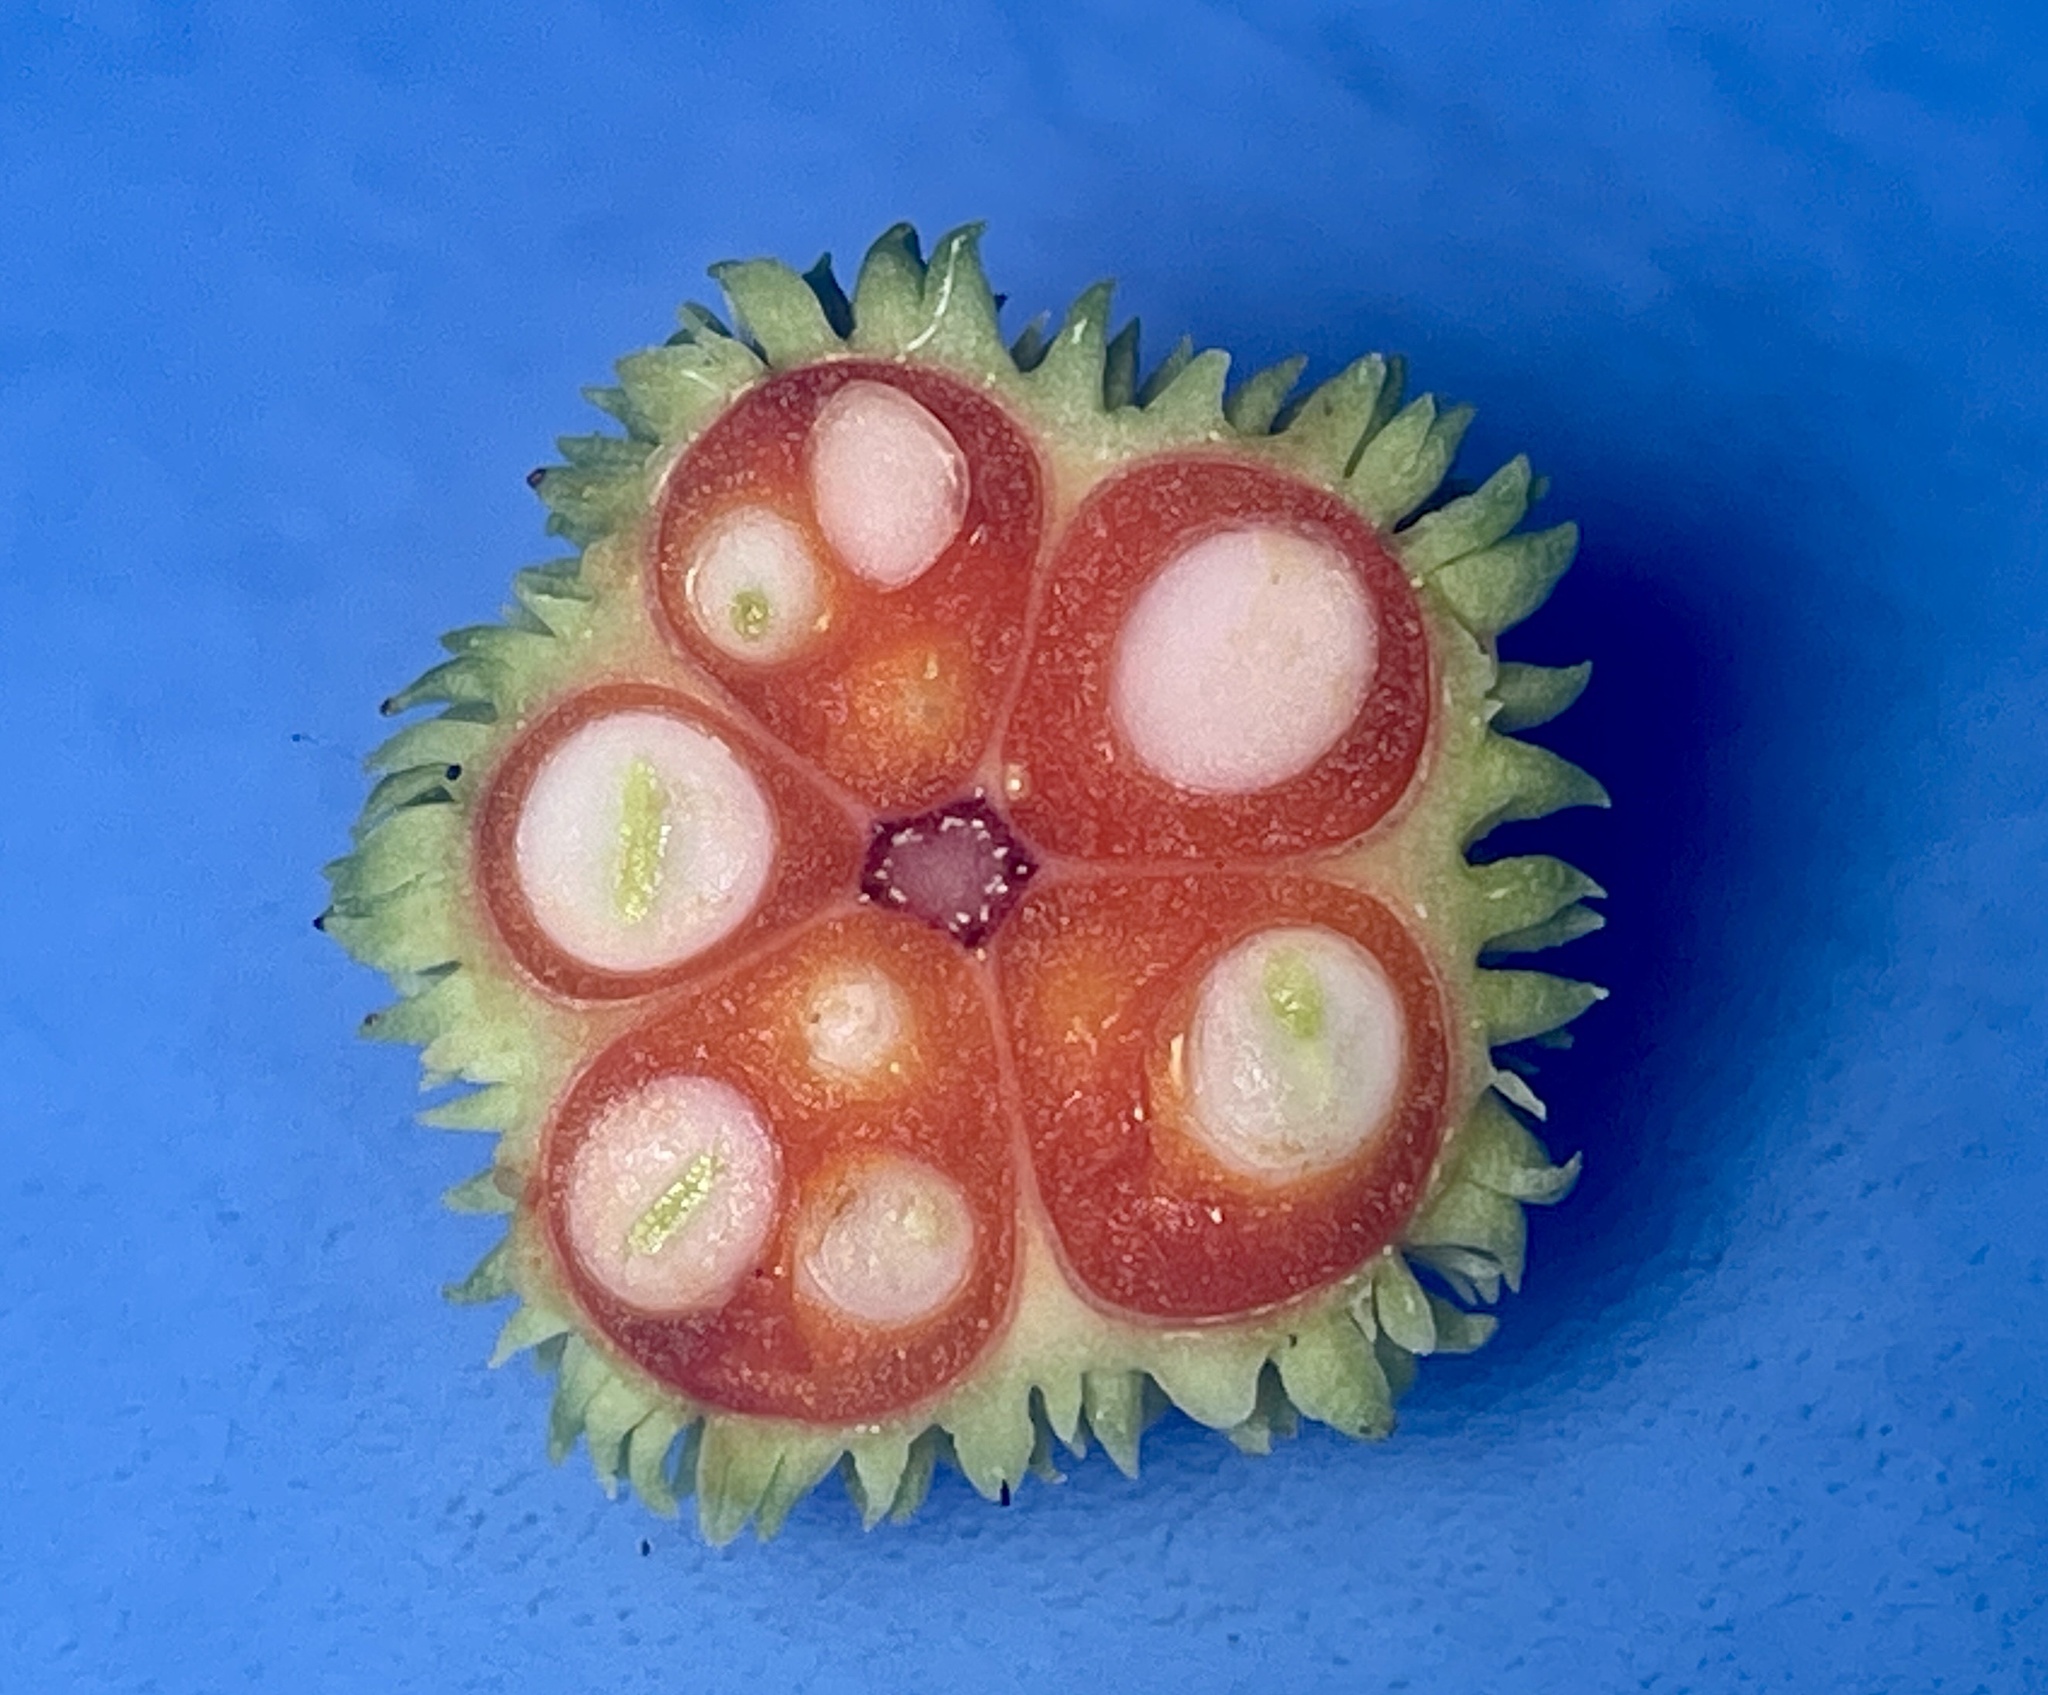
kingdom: Plantae
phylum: Tracheophyta
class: Magnoliopsida
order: Celastrales
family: Celastraceae
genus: Euonymus
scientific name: Euonymus americanus
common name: Bursting-heart
